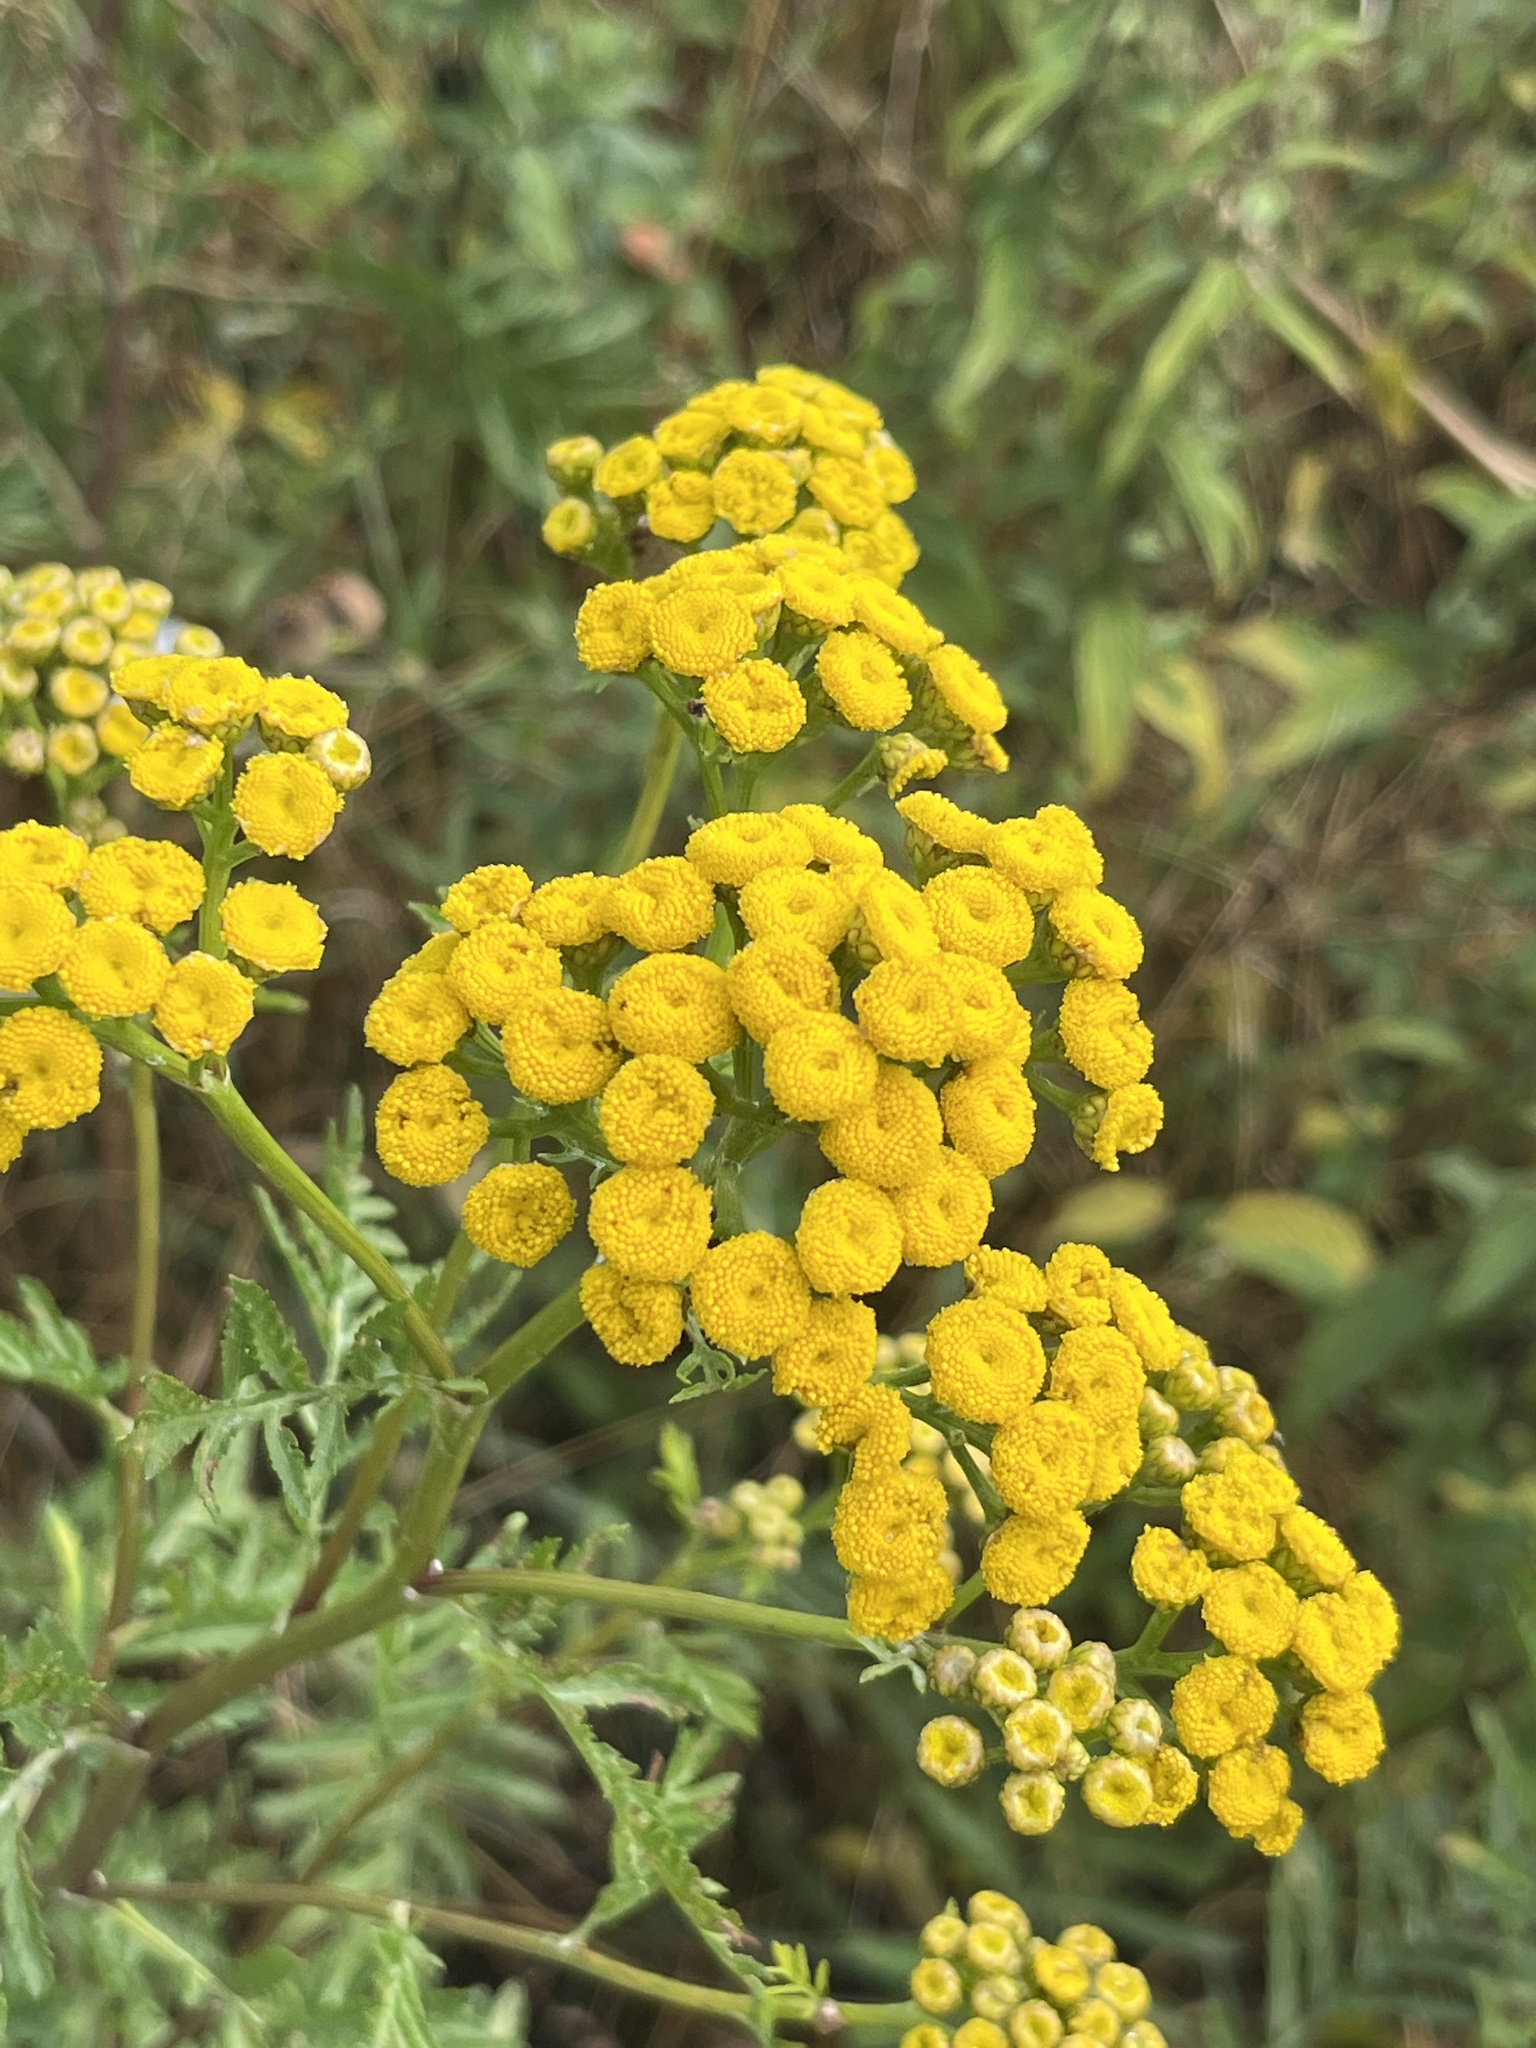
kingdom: Plantae
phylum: Tracheophyta
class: Magnoliopsida
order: Asterales
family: Asteraceae
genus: Tanacetum
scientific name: Tanacetum vulgare
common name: Common tansy
